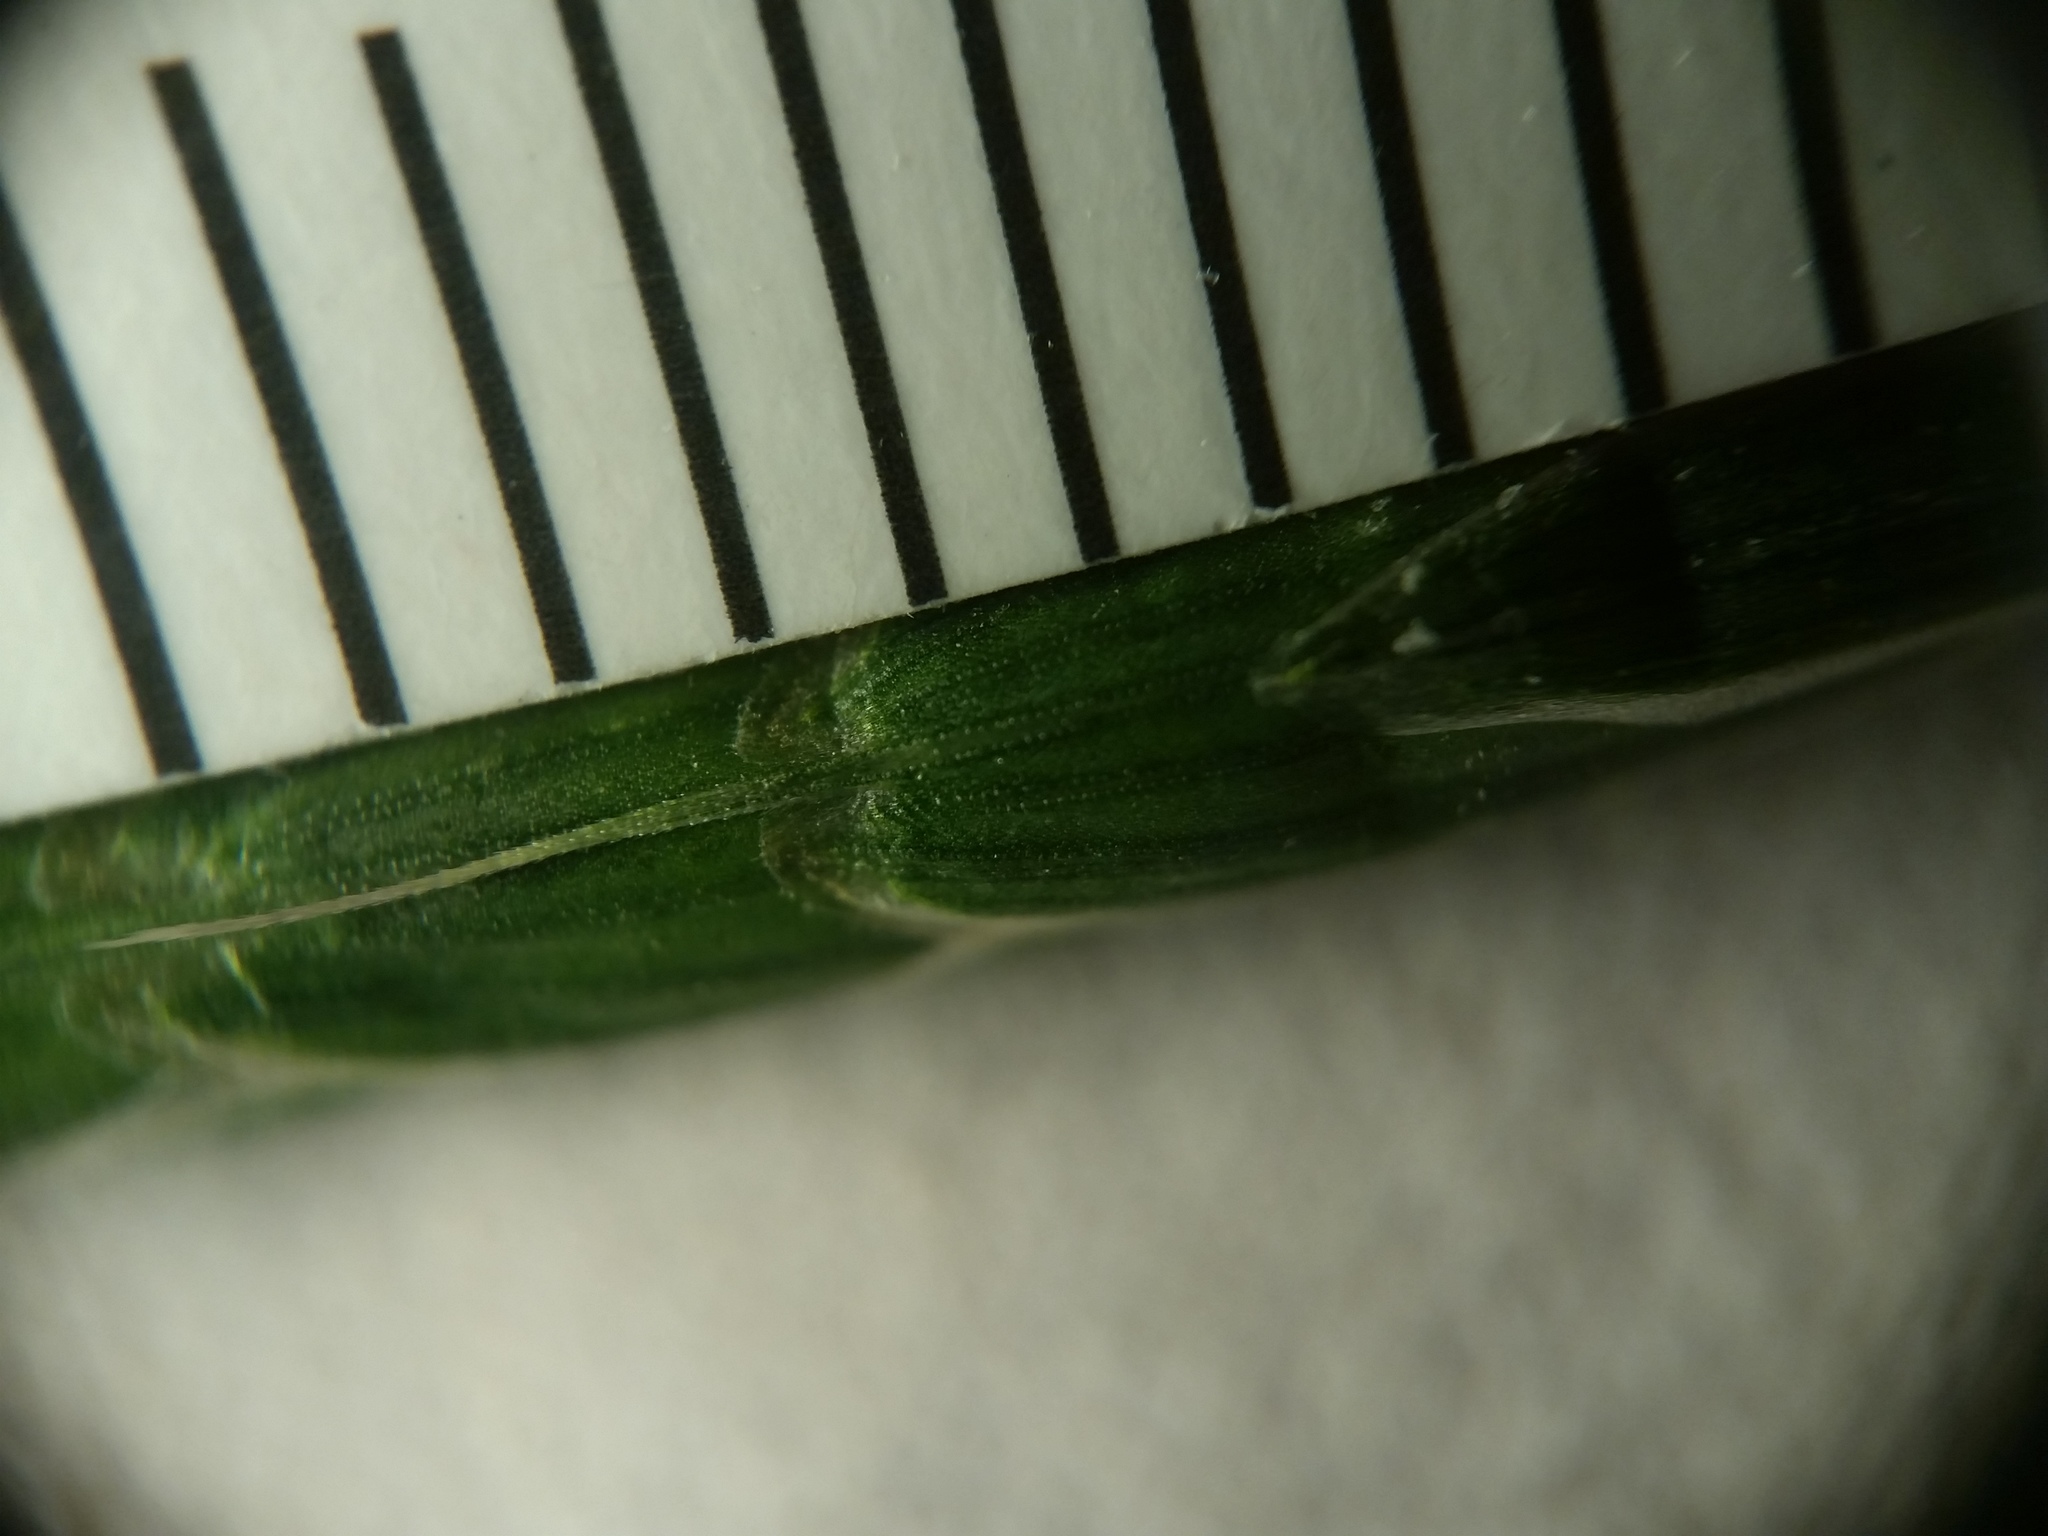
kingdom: Plantae
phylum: Tracheophyta
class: Liliopsida
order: Poales
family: Poaceae
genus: Bromus
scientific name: Bromus commutatus
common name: Meadow brome
